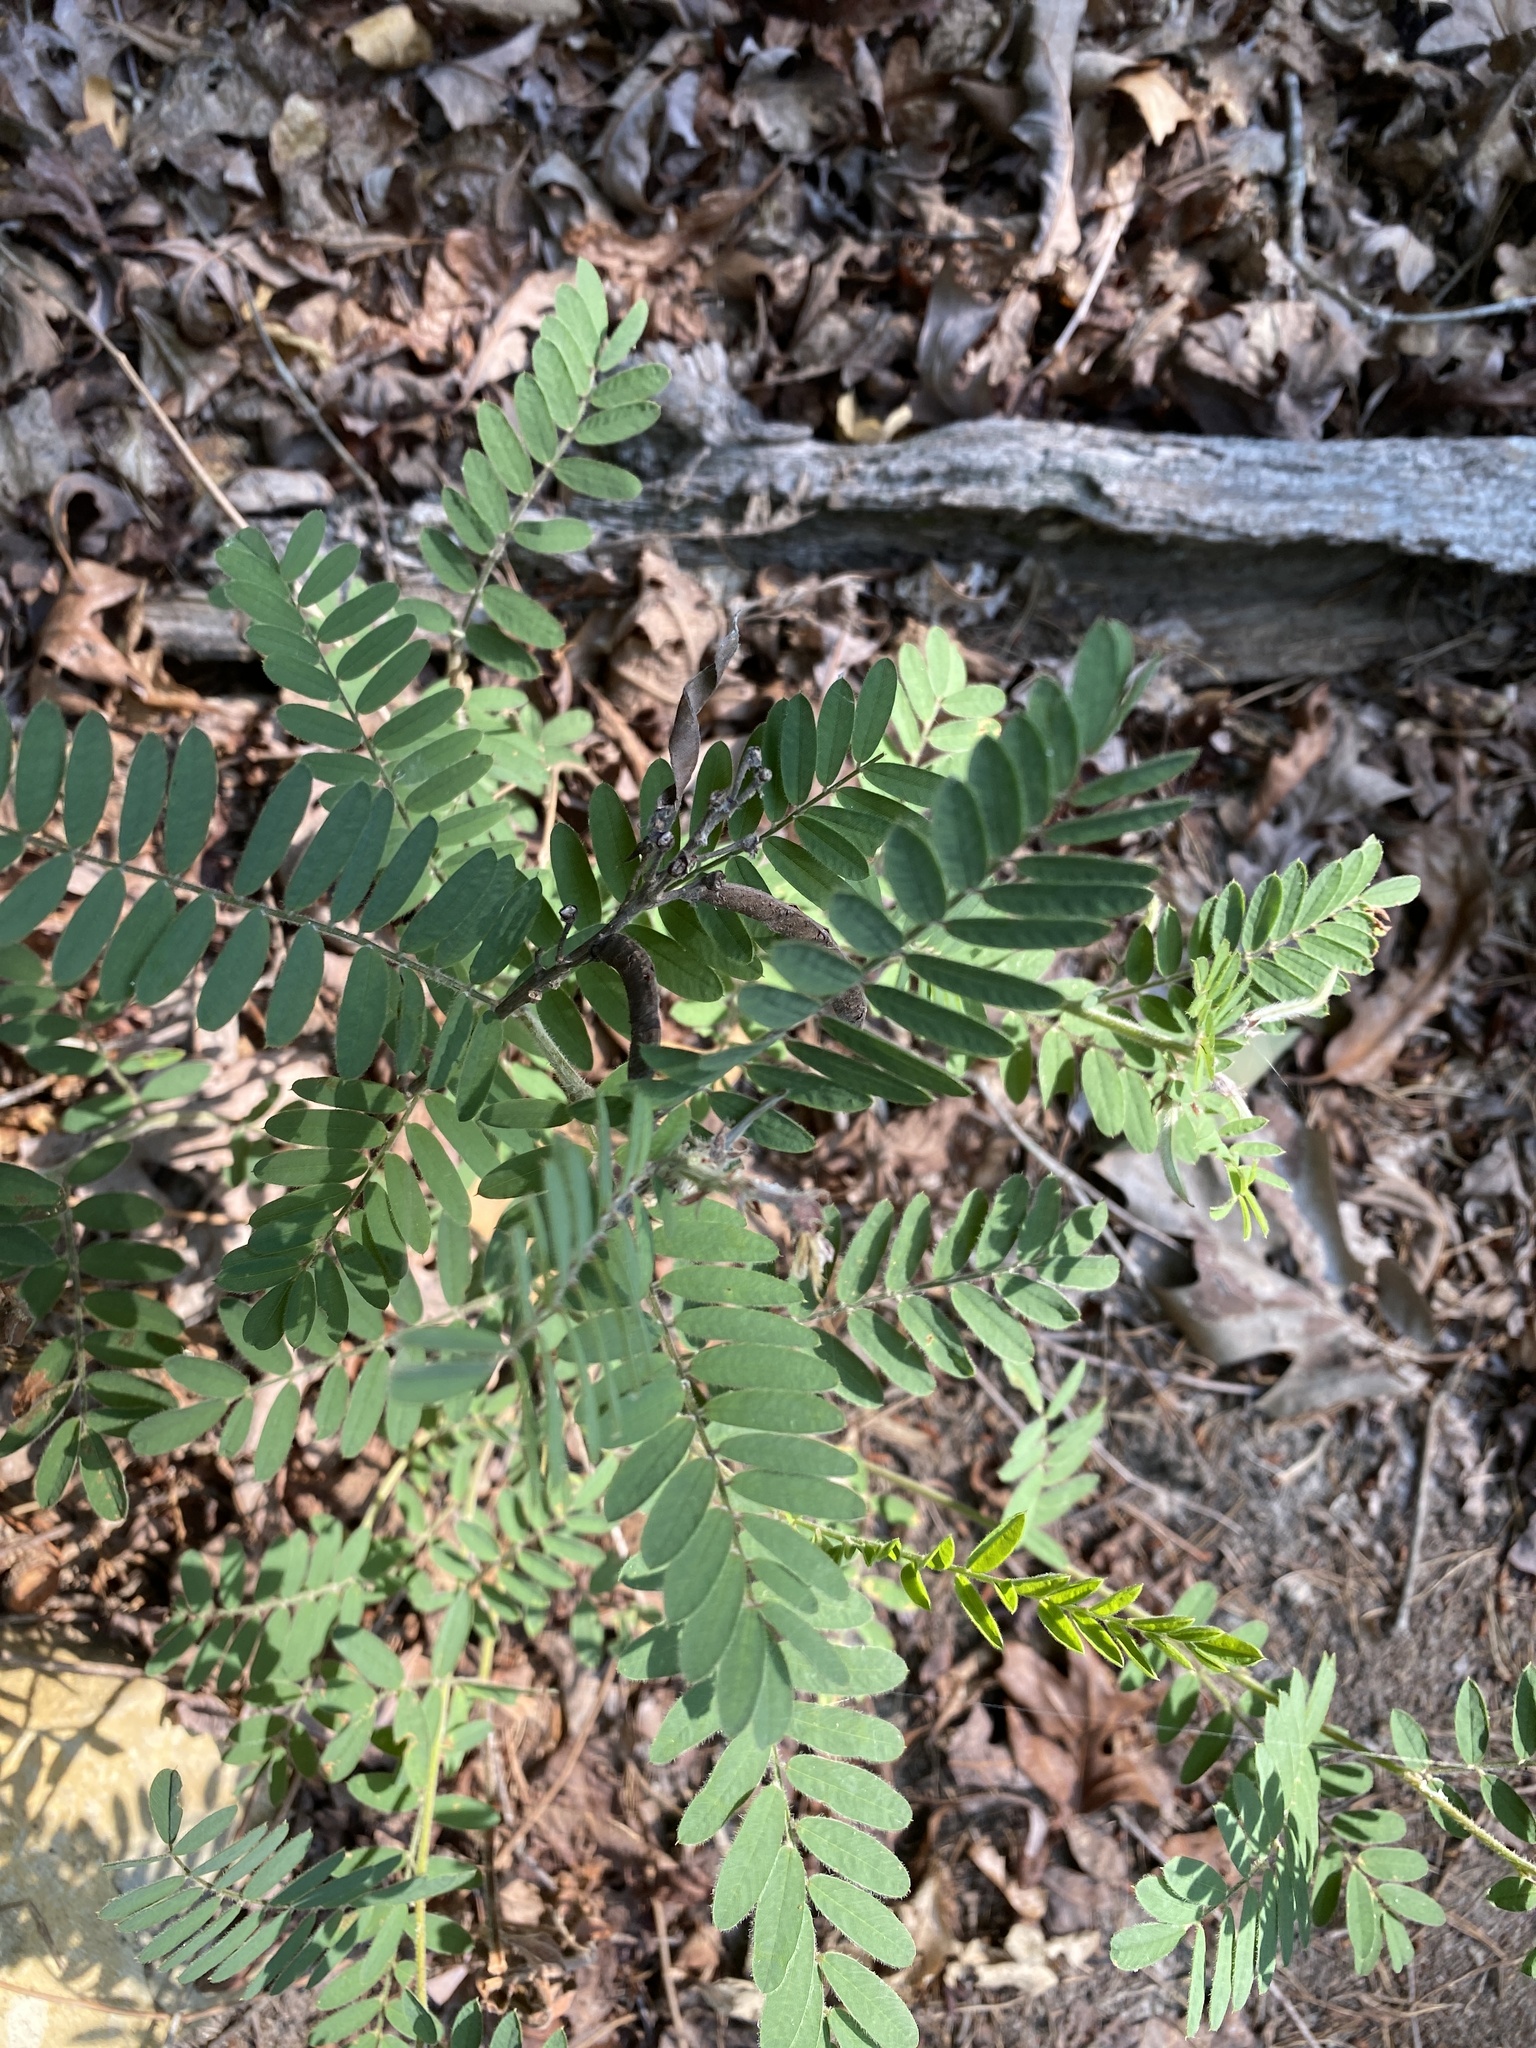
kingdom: Plantae
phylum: Tracheophyta
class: Magnoliopsida
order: Fabales
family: Fabaceae
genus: Tephrosia
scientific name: Tephrosia virginiana
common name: Rabbit-pea
